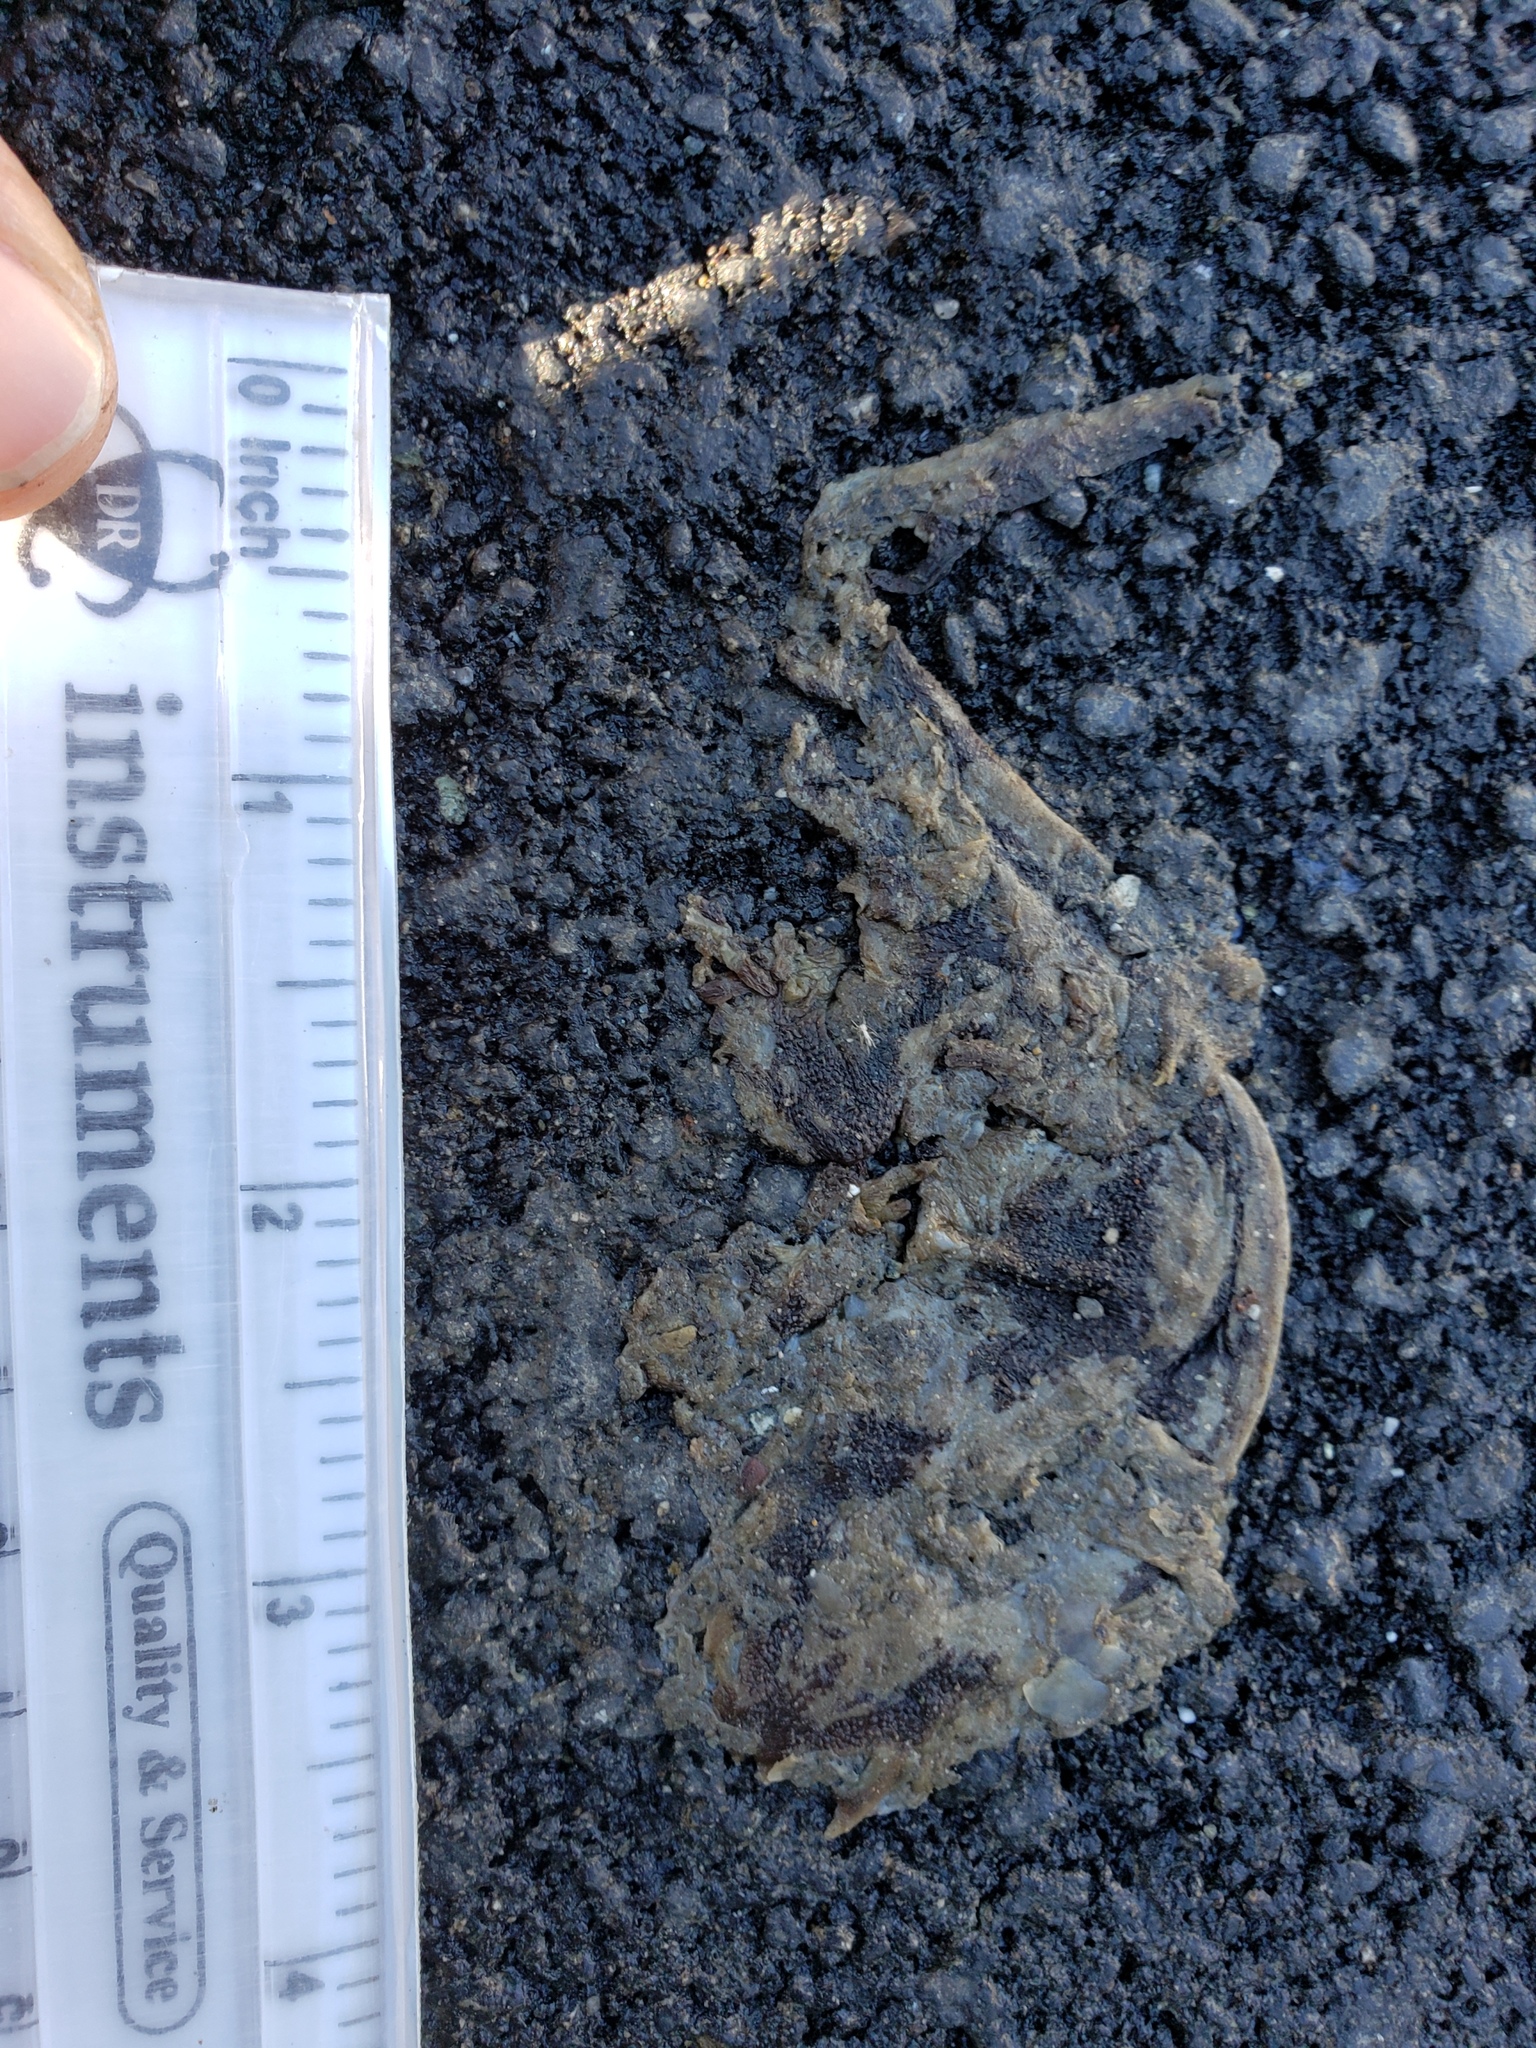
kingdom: Animalia
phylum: Chordata
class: Amphibia
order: Caudata
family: Salamandridae
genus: Taricha
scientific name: Taricha
